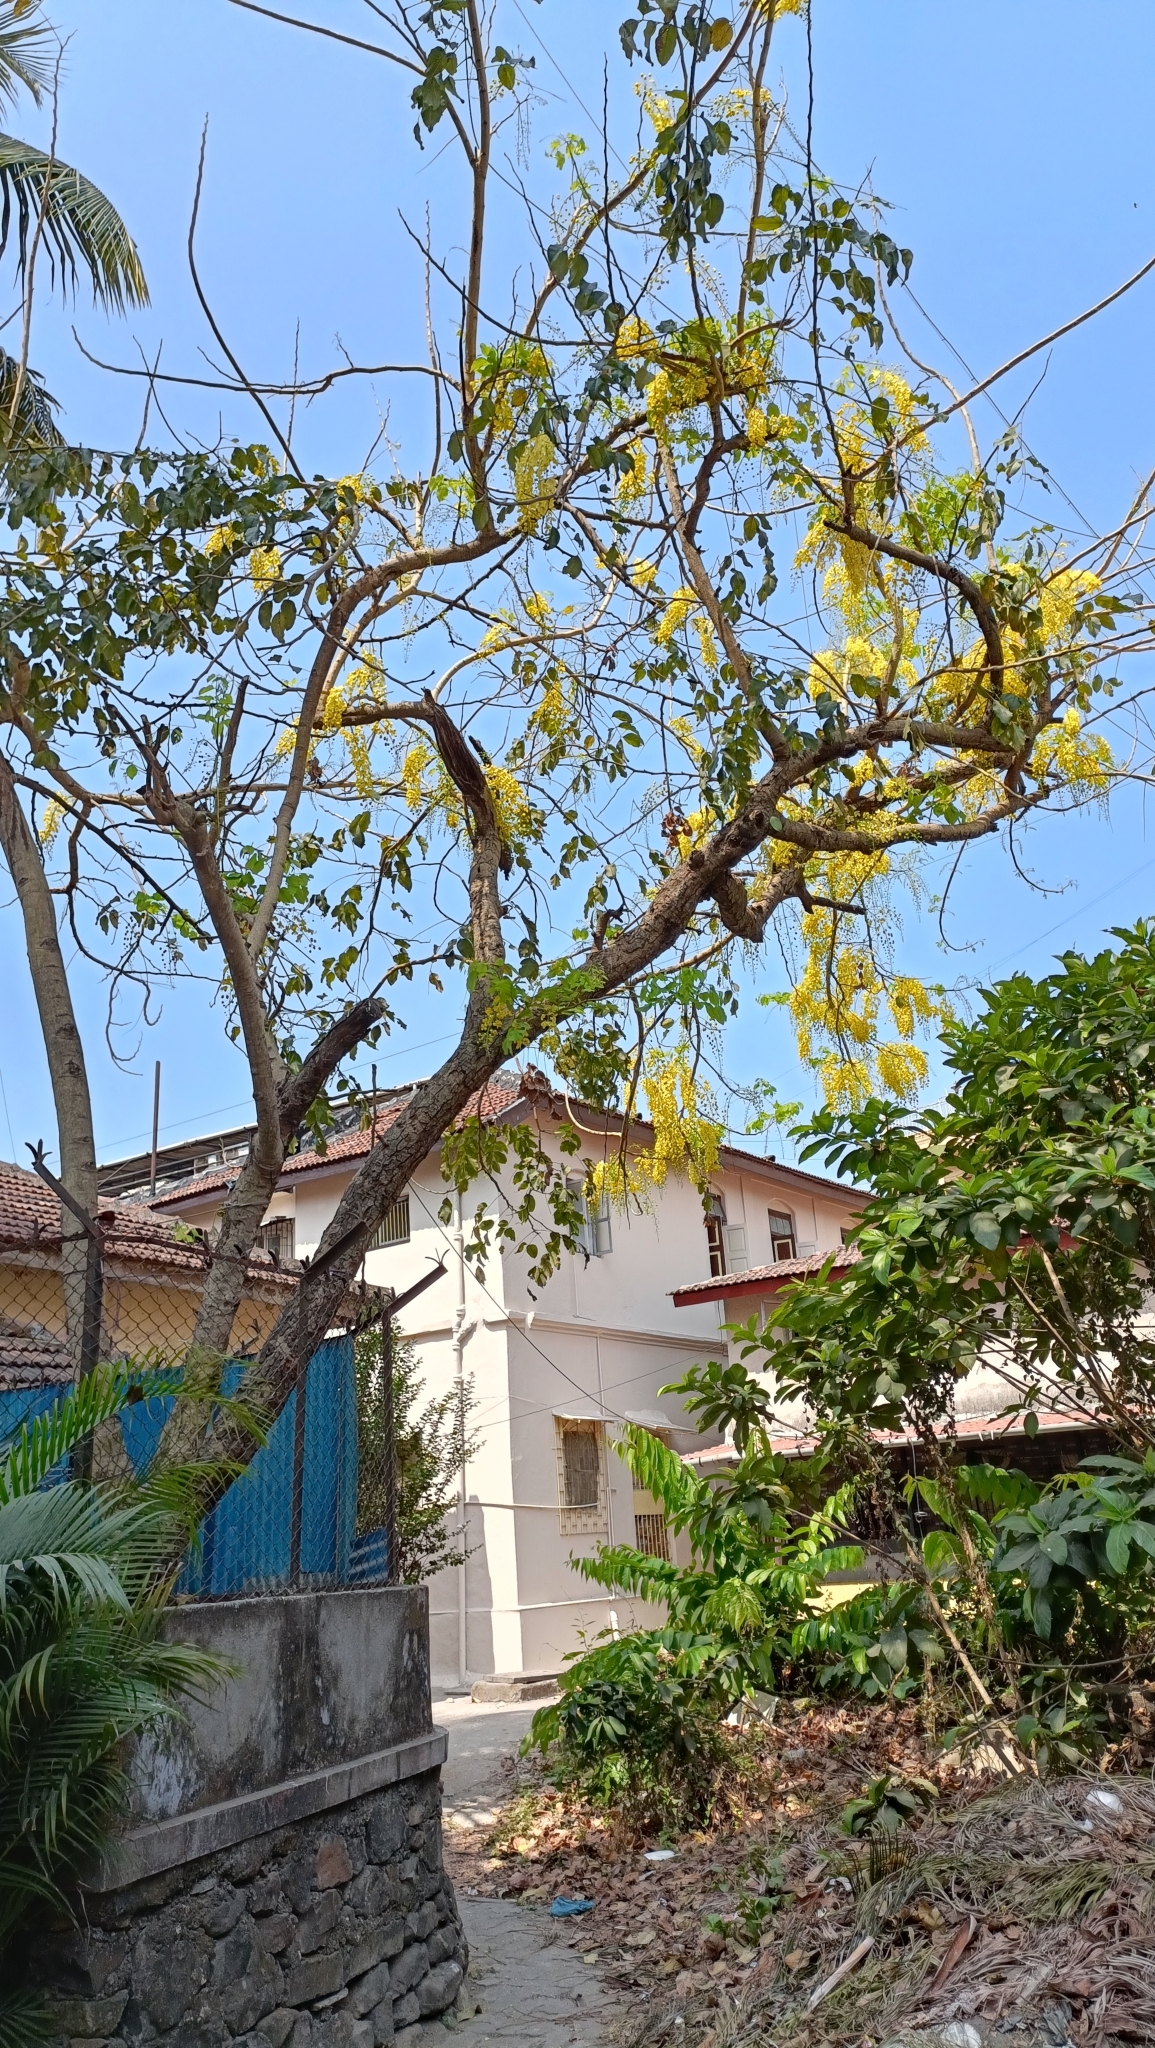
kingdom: Plantae
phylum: Tracheophyta
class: Magnoliopsida
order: Fabales
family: Fabaceae
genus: Cassia
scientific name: Cassia fistula
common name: Golden shower
